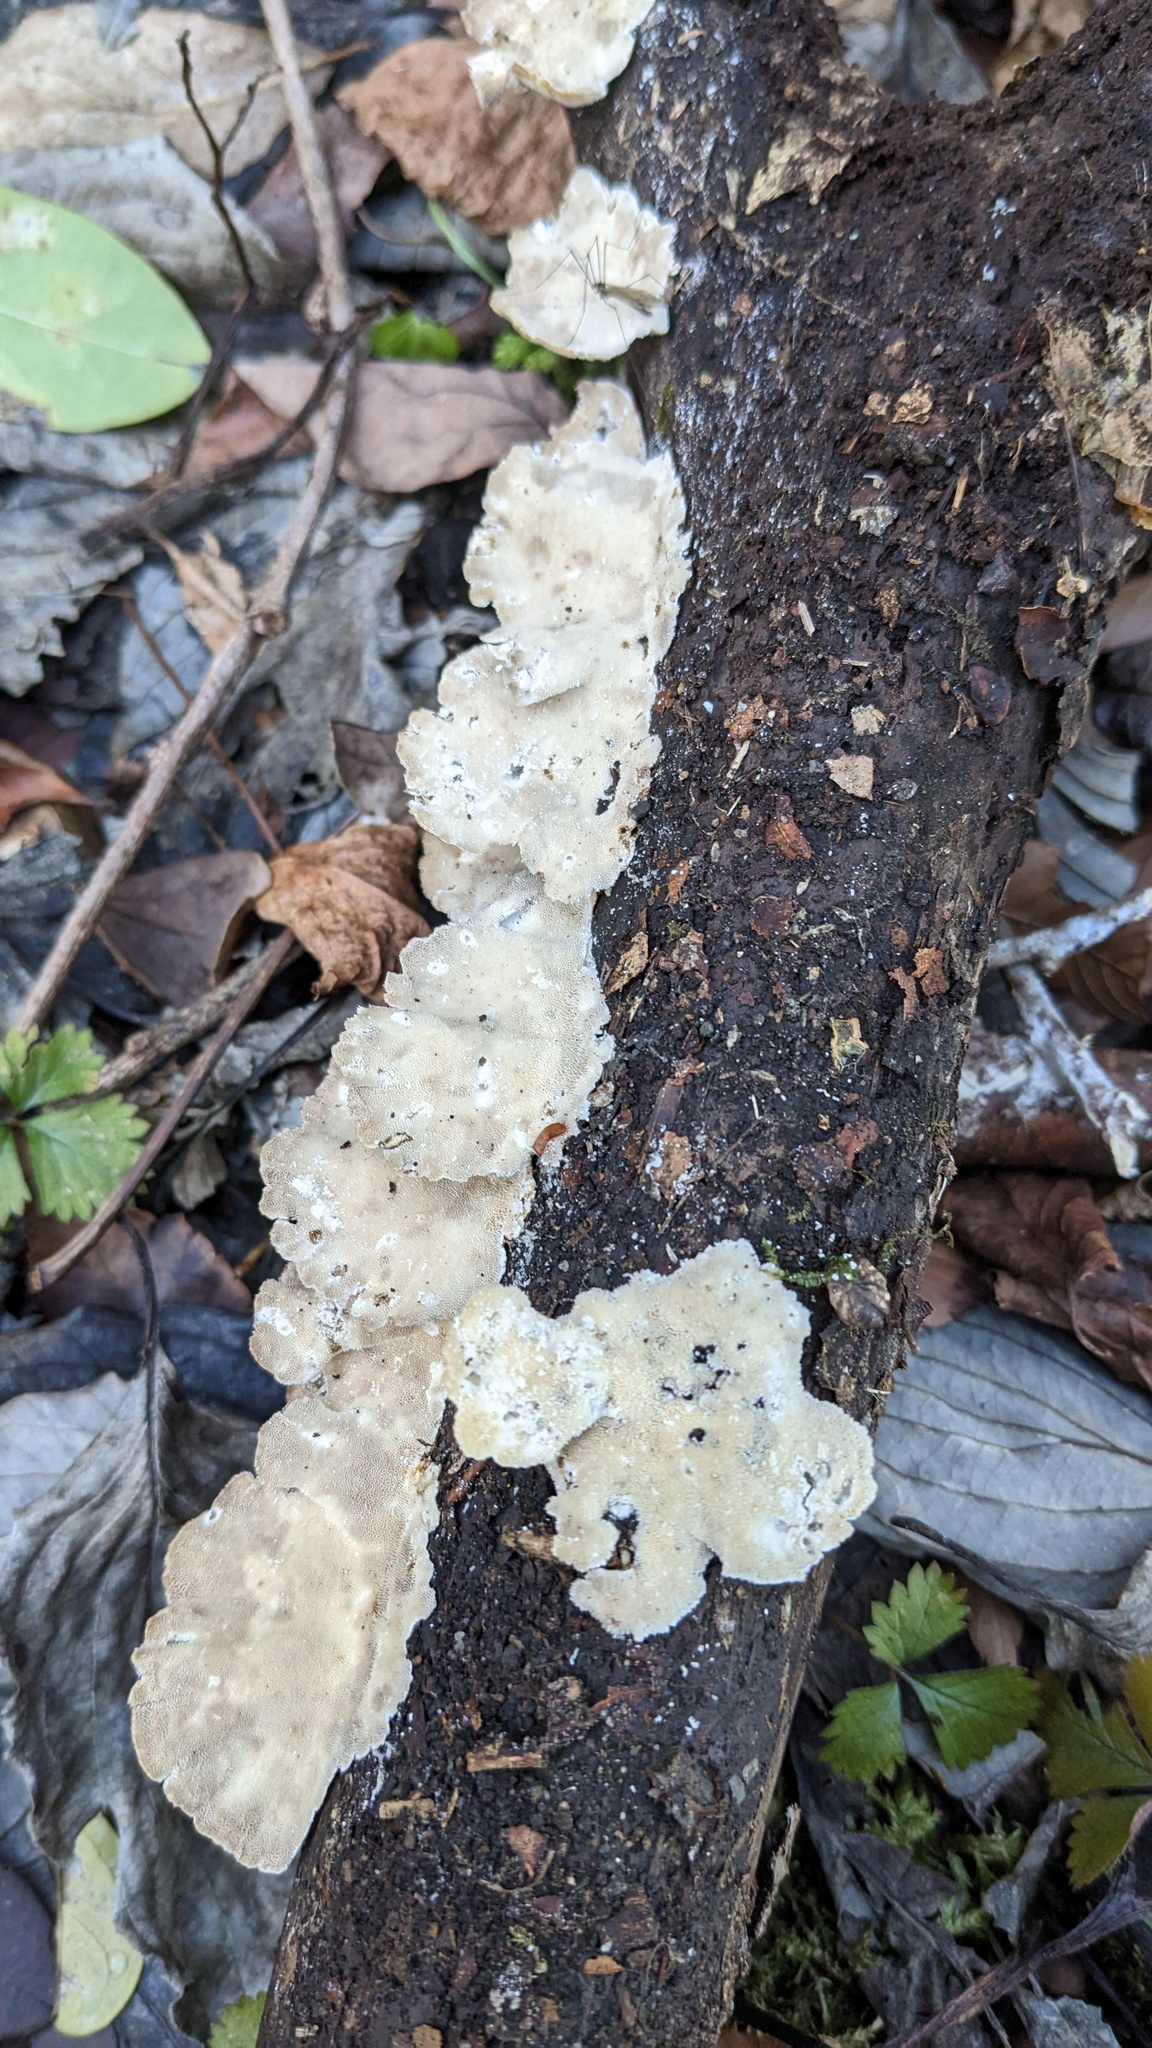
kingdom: Fungi
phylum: Basidiomycota
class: Agaricomycetes
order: Polyporales
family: Polyporaceae
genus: Trametes
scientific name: Trametes versicolor
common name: Turkeytail
